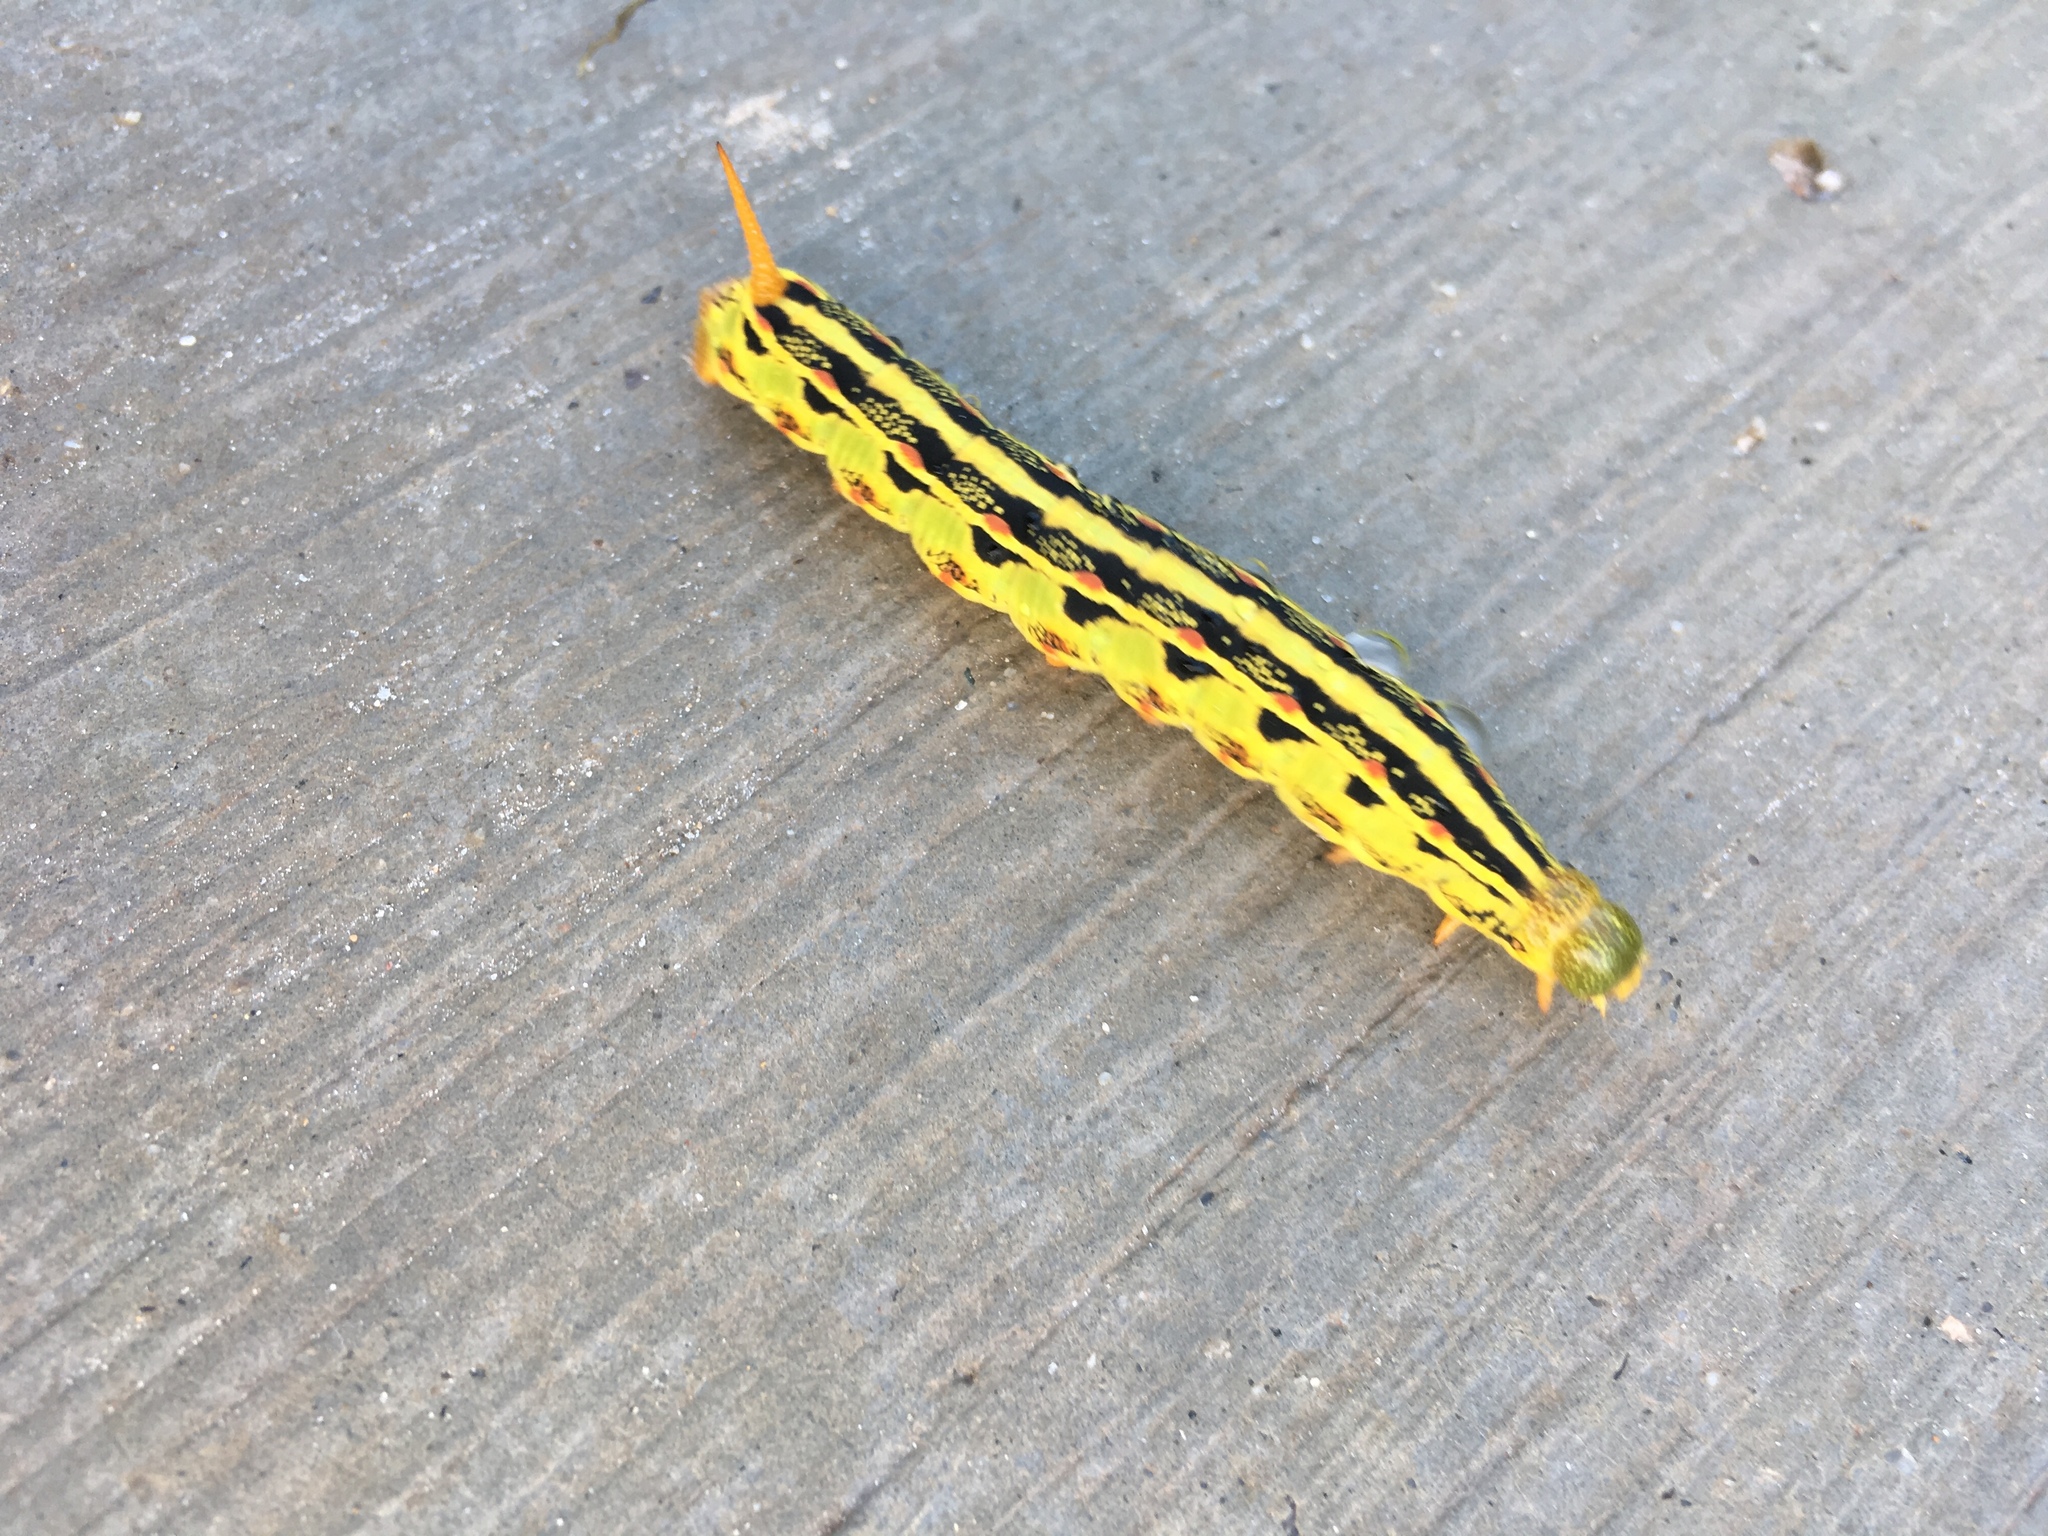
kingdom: Animalia
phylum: Arthropoda
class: Insecta
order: Lepidoptera
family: Sphingidae
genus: Hyles
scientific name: Hyles lineata
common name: White-lined sphinx
